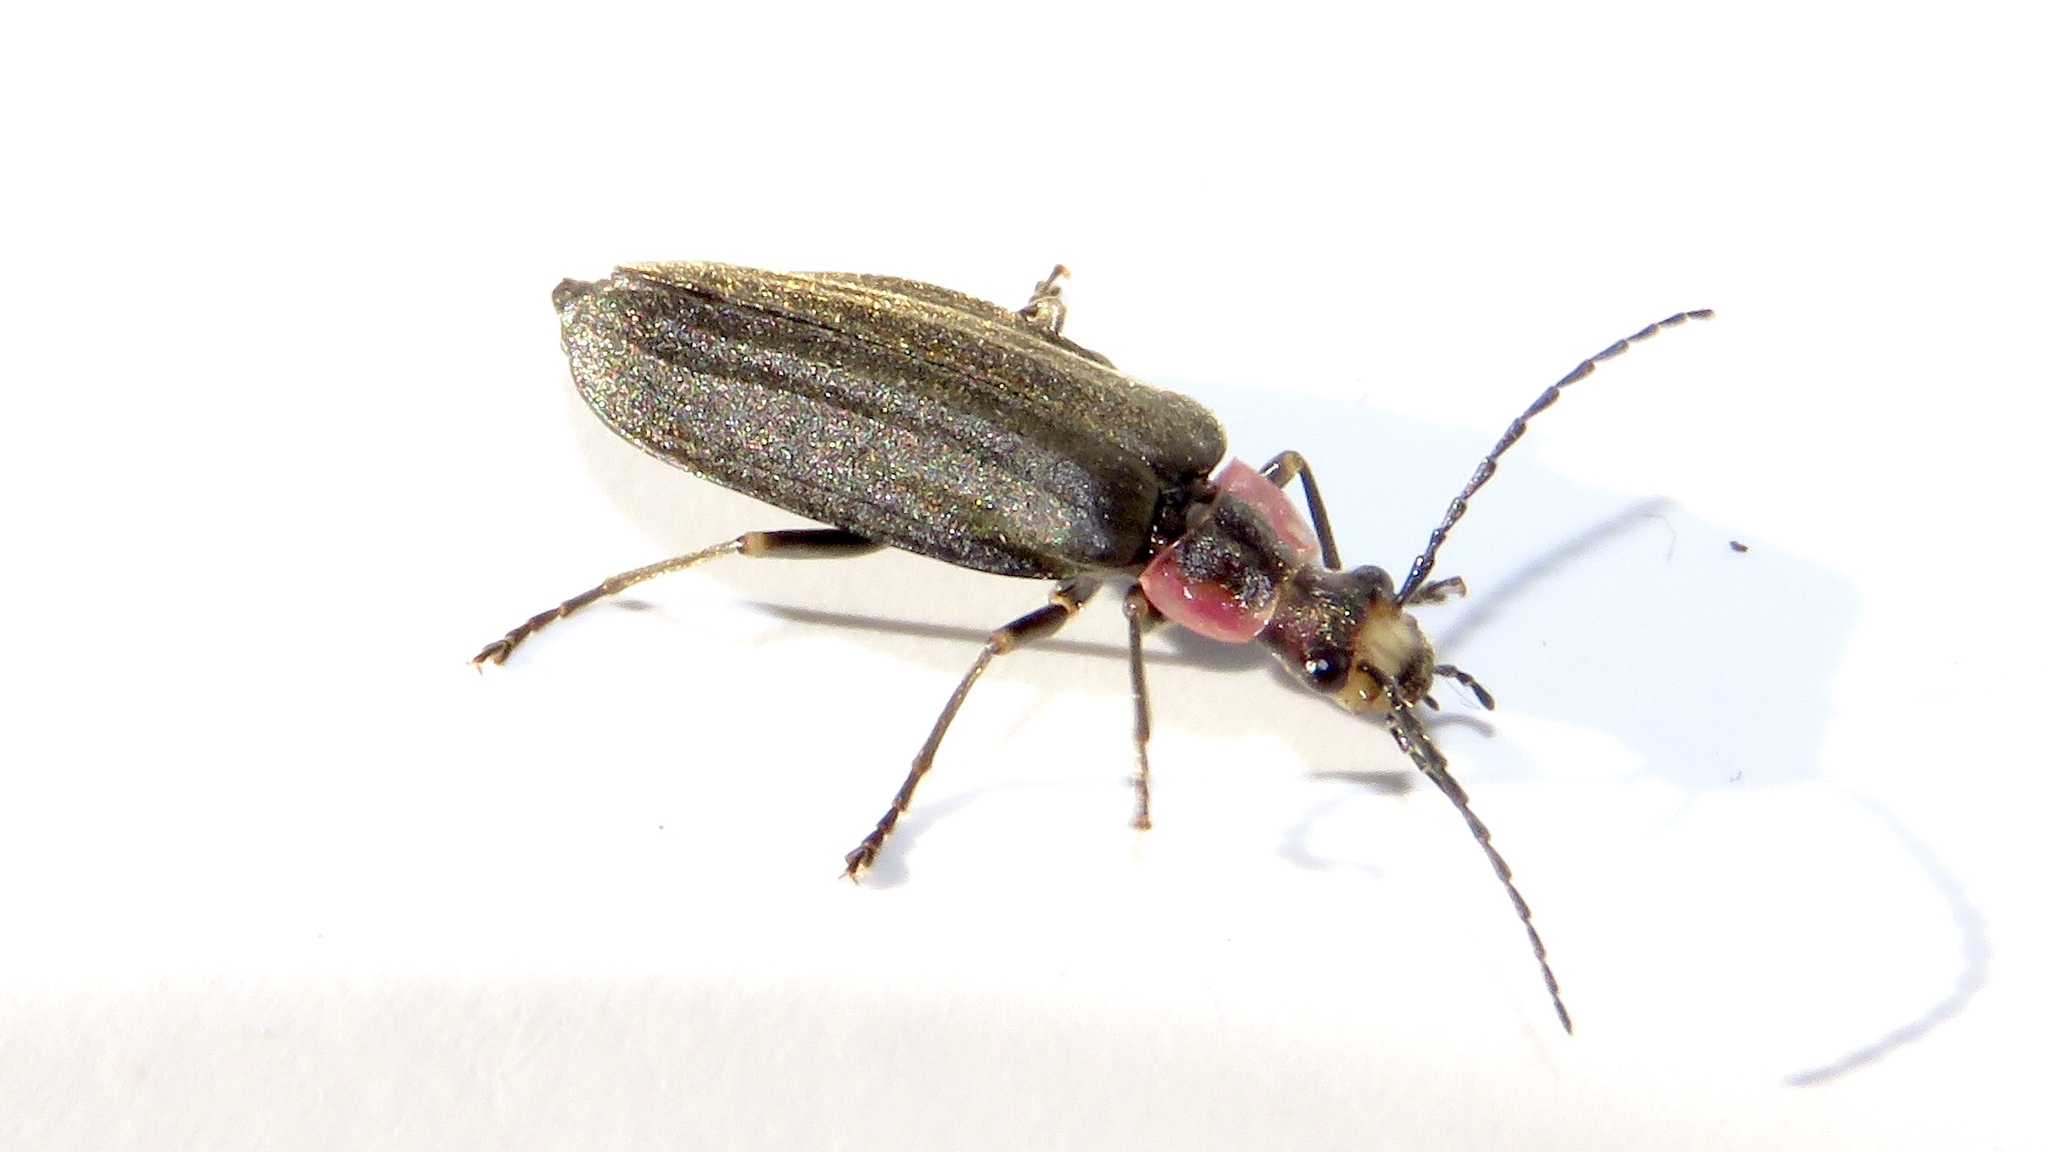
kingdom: Animalia
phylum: Arthropoda
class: Insecta
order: Coleoptera
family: Cantharidae
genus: Podabrus
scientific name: Podabrus tricostatus
